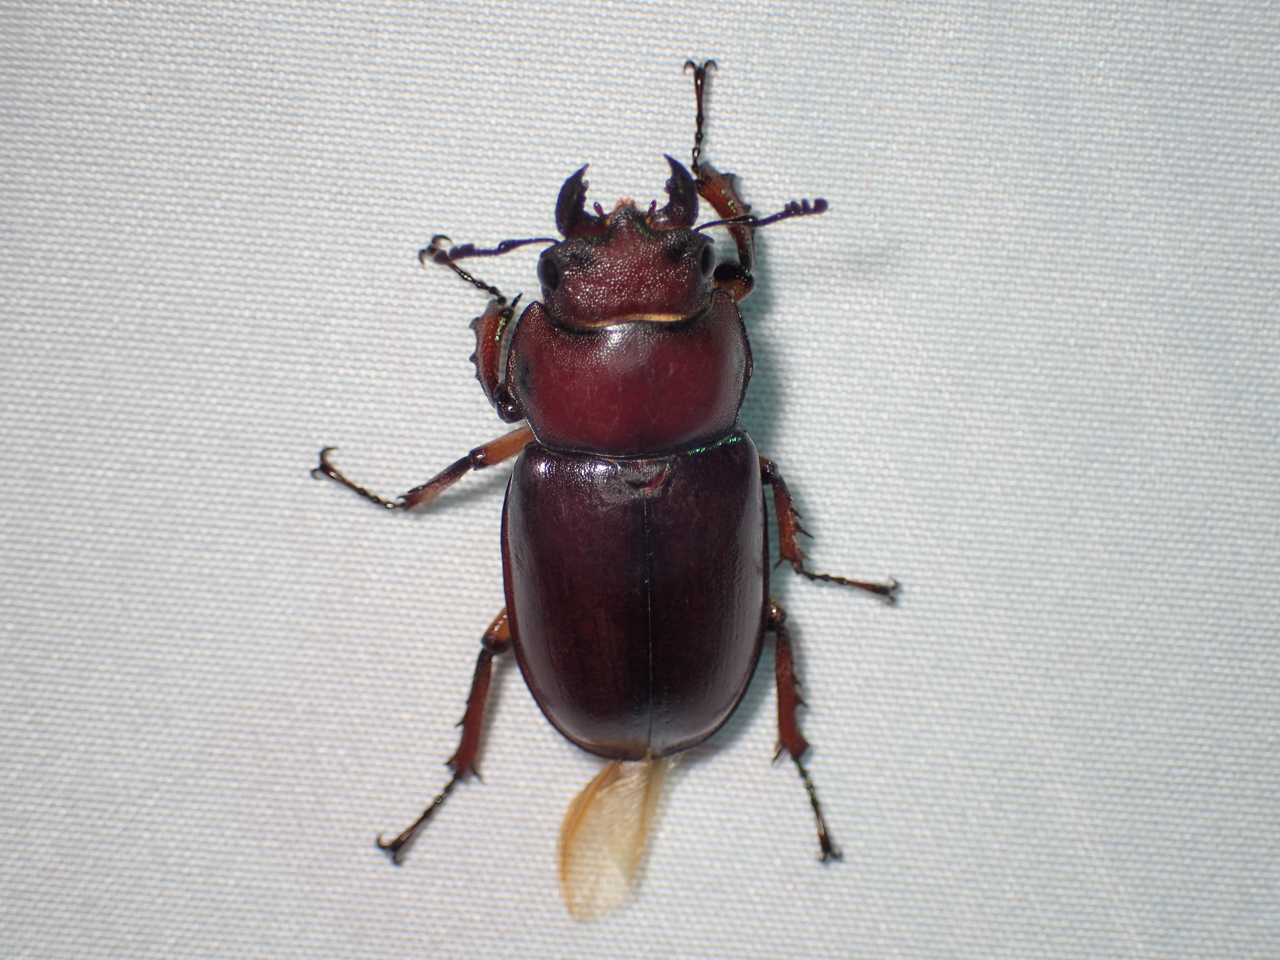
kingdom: Animalia
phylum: Arthropoda
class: Insecta
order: Coleoptera
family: Lucanidae
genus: Lucanus
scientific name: Lucanus capreolus
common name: Stag beetle
